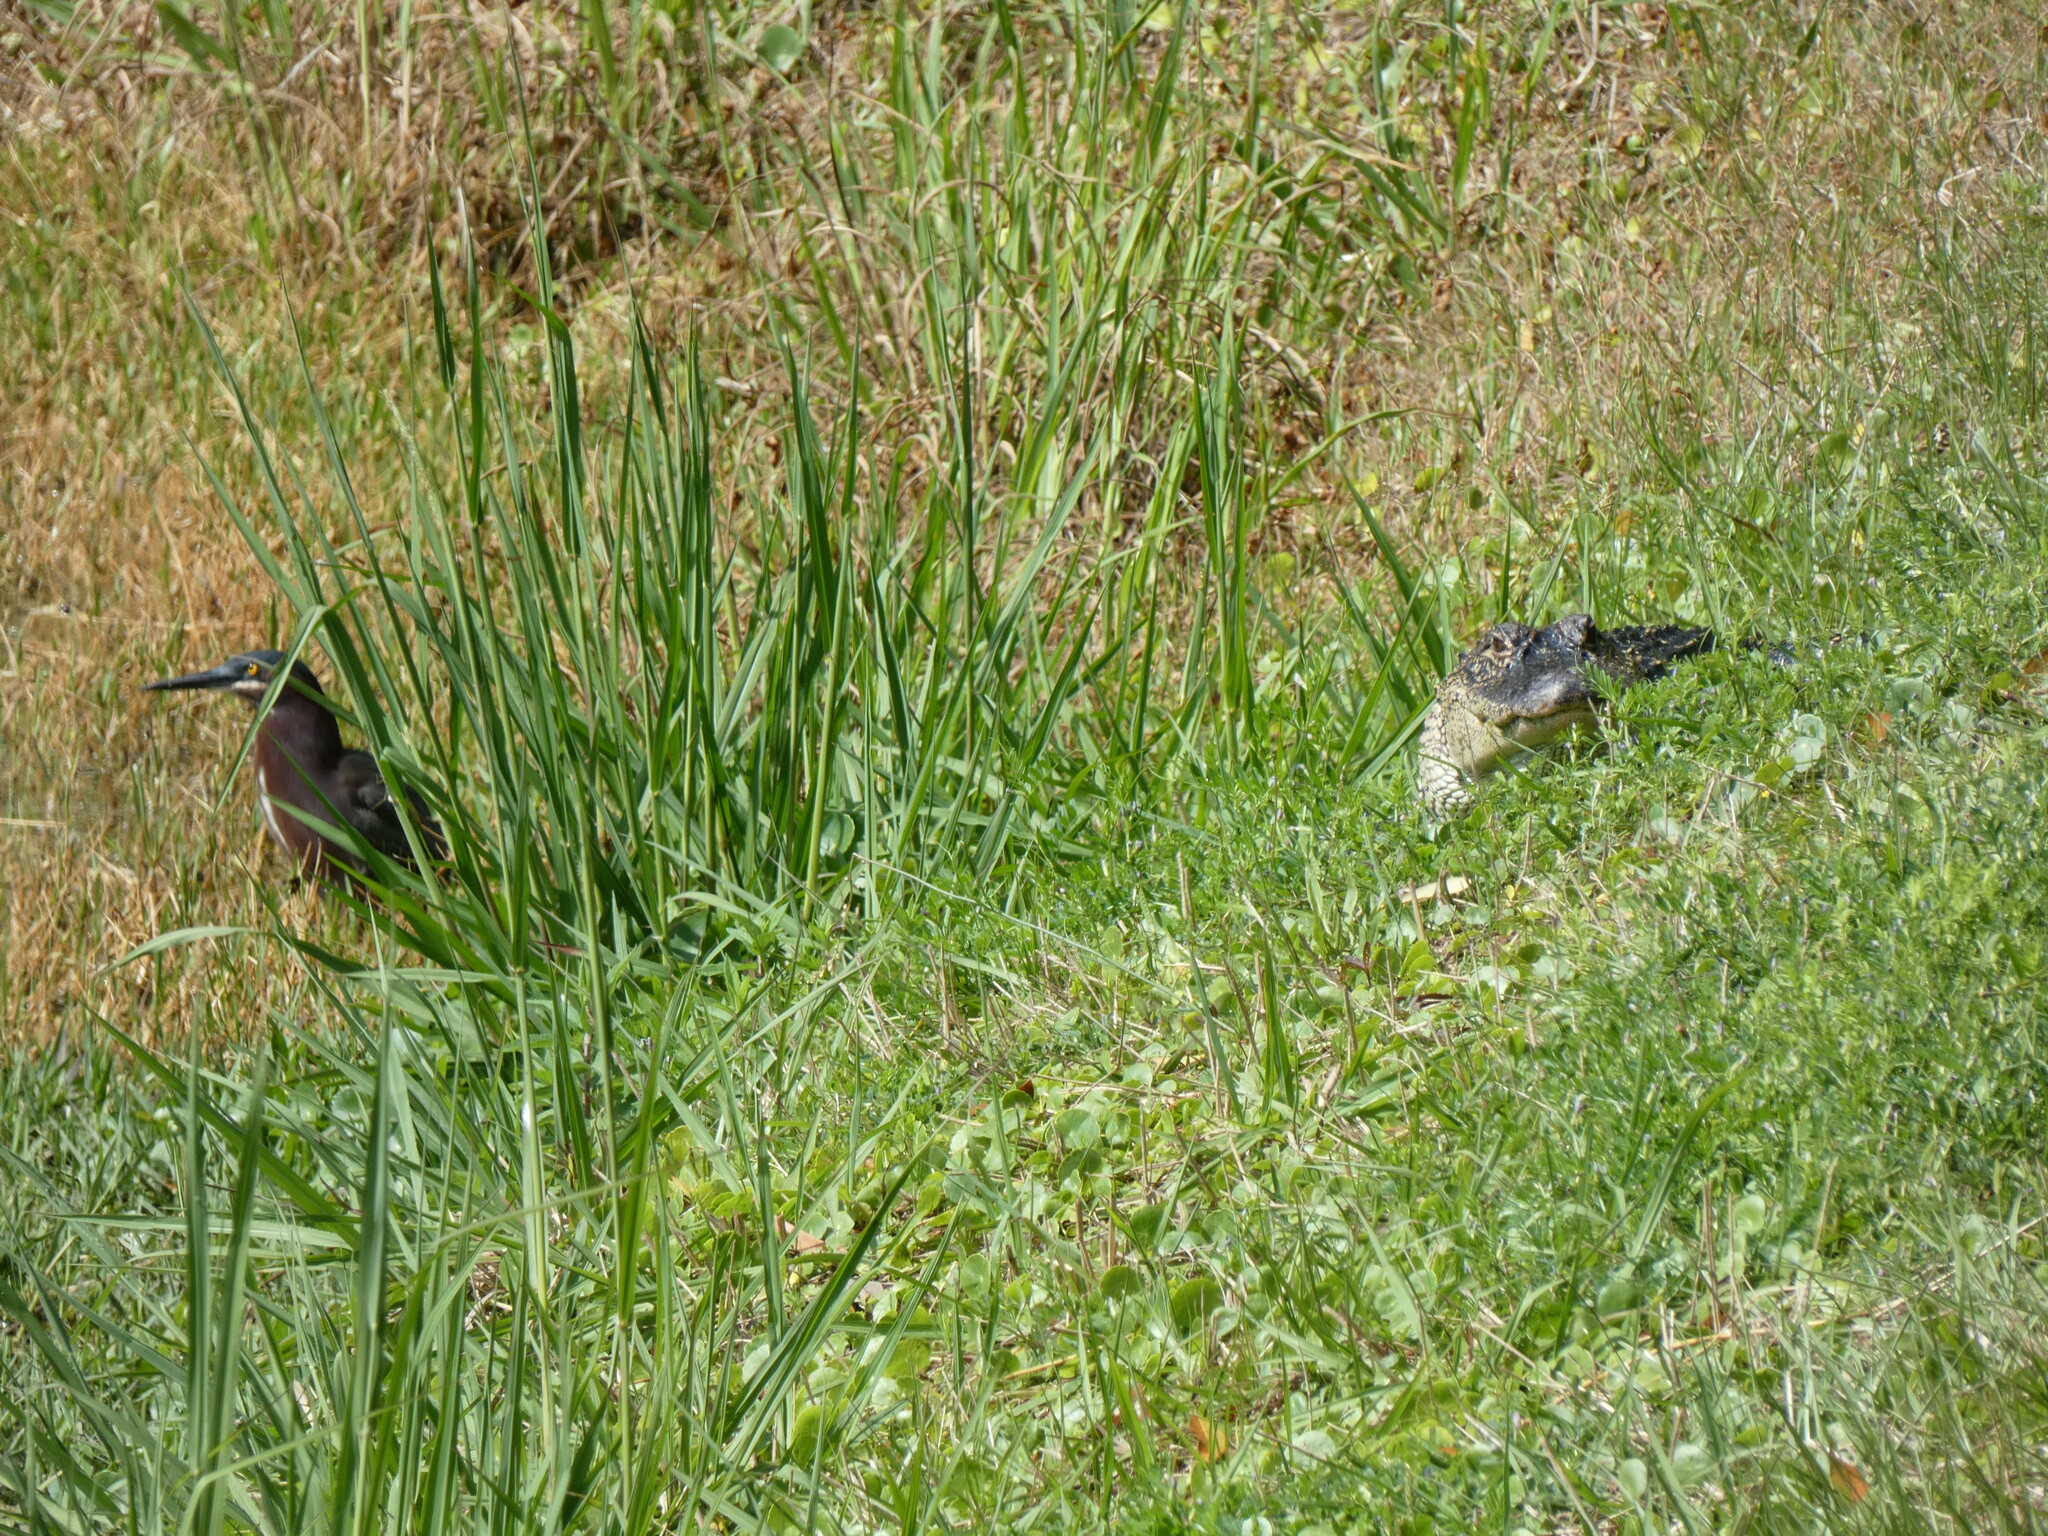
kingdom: Animalia
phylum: Chordata
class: Crocodylia
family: Alligatoridae
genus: Alligator
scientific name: Alligator mississippiensis
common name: American alligator
